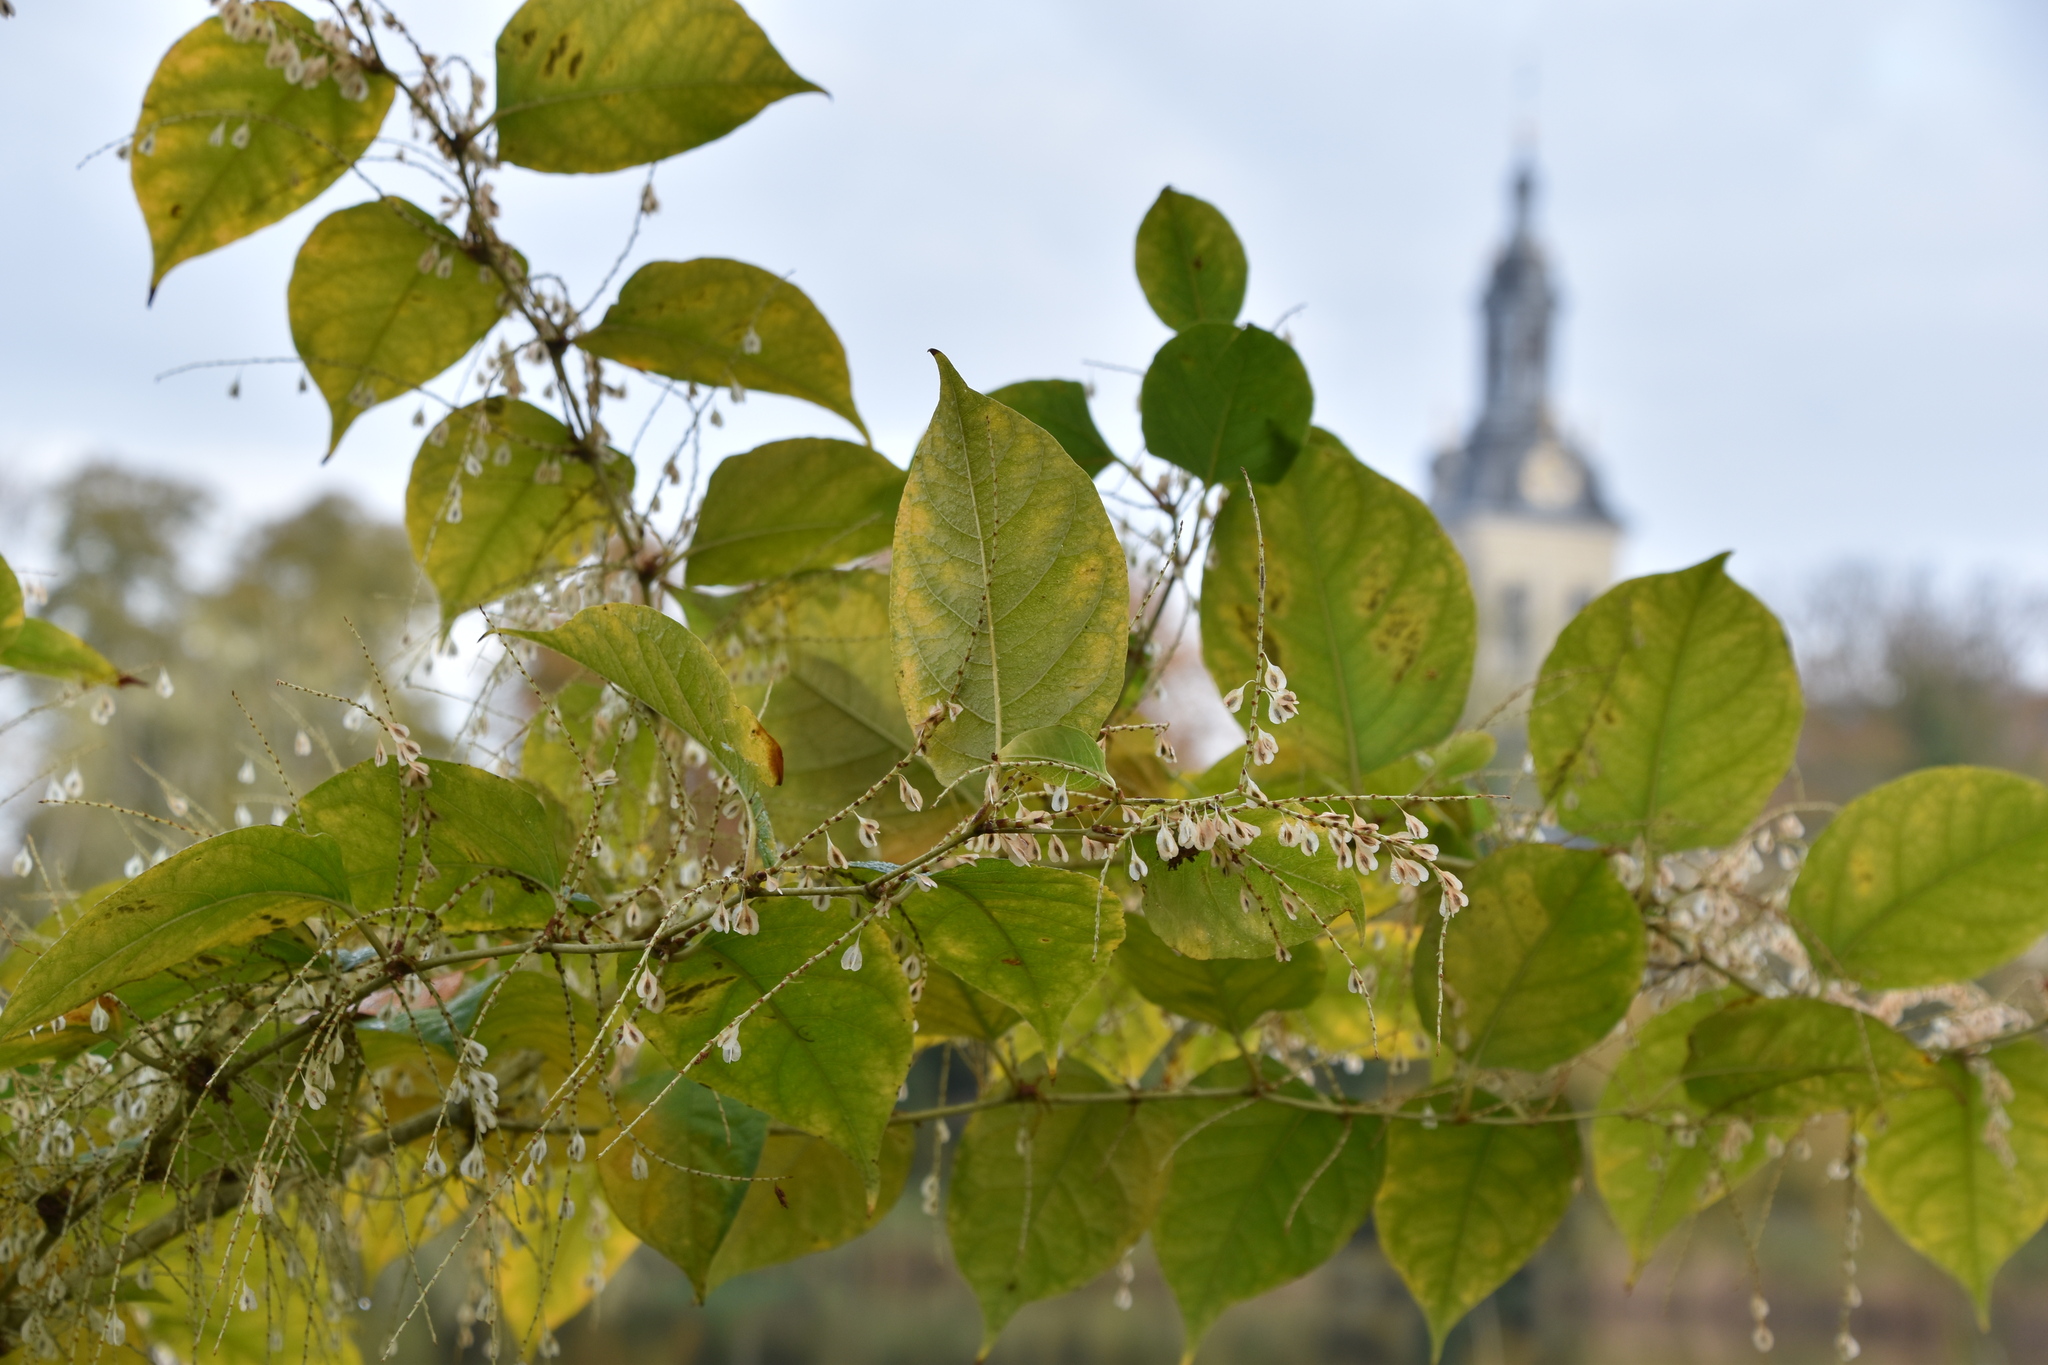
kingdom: Plantae
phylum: Tracheophyta
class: Magnoliopsida
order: Caryophyllales
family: Polygonaceae
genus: Reynoutria
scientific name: Reynoutria japonica
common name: Japanese knotweed
